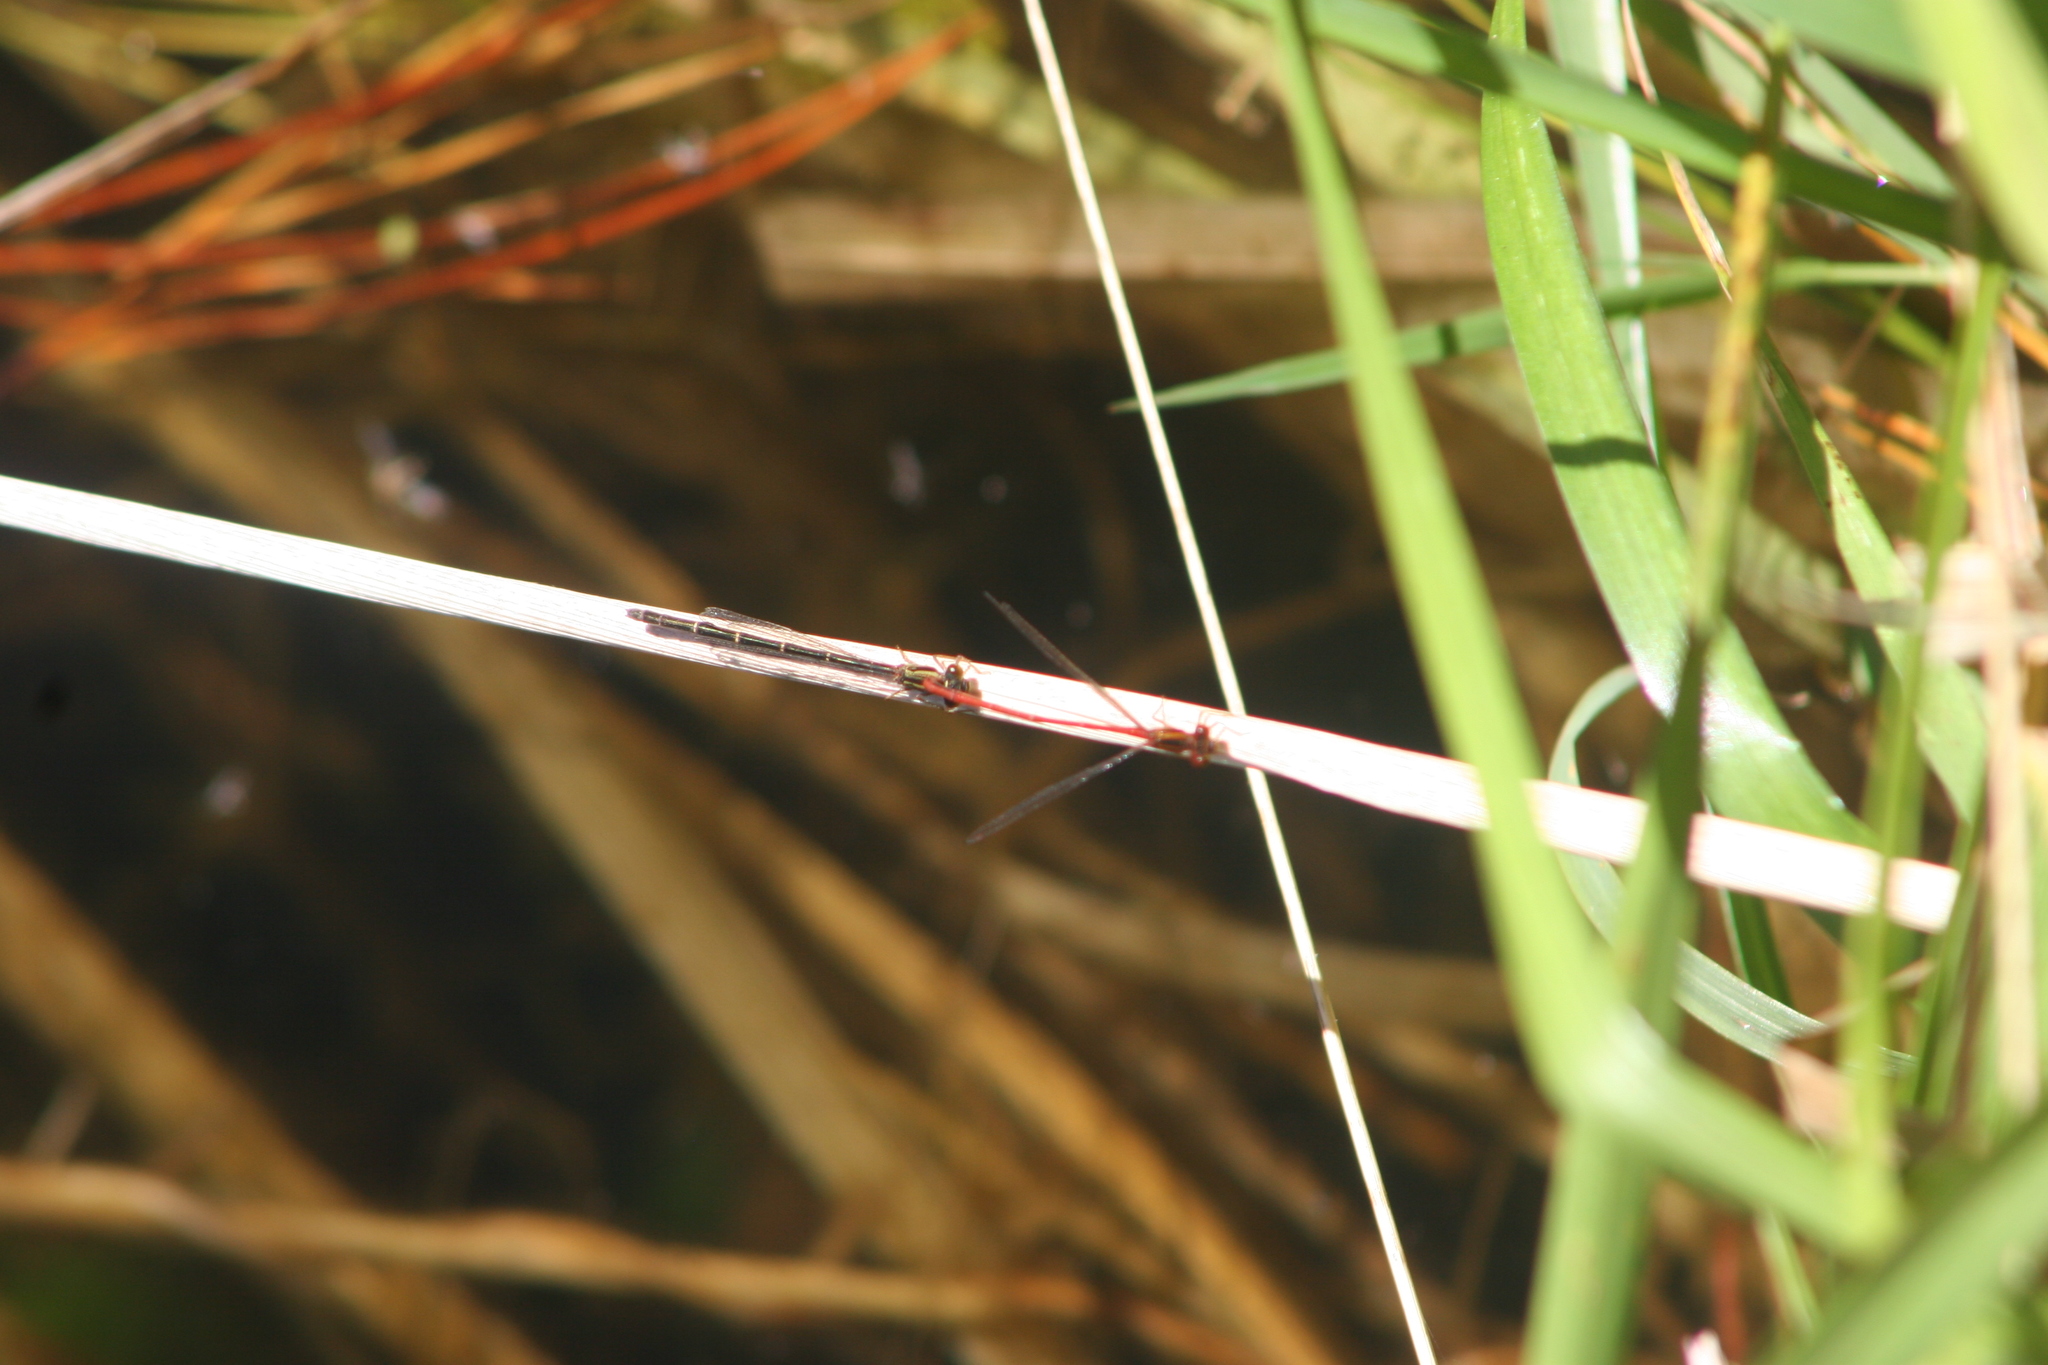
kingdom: Animalia
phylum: Arthropoda
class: Insecta
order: Odonata
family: Coenagrionidae
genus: Xanthocnemis
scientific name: Xanthocnemis zealandica
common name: Common redcoat damselfly
